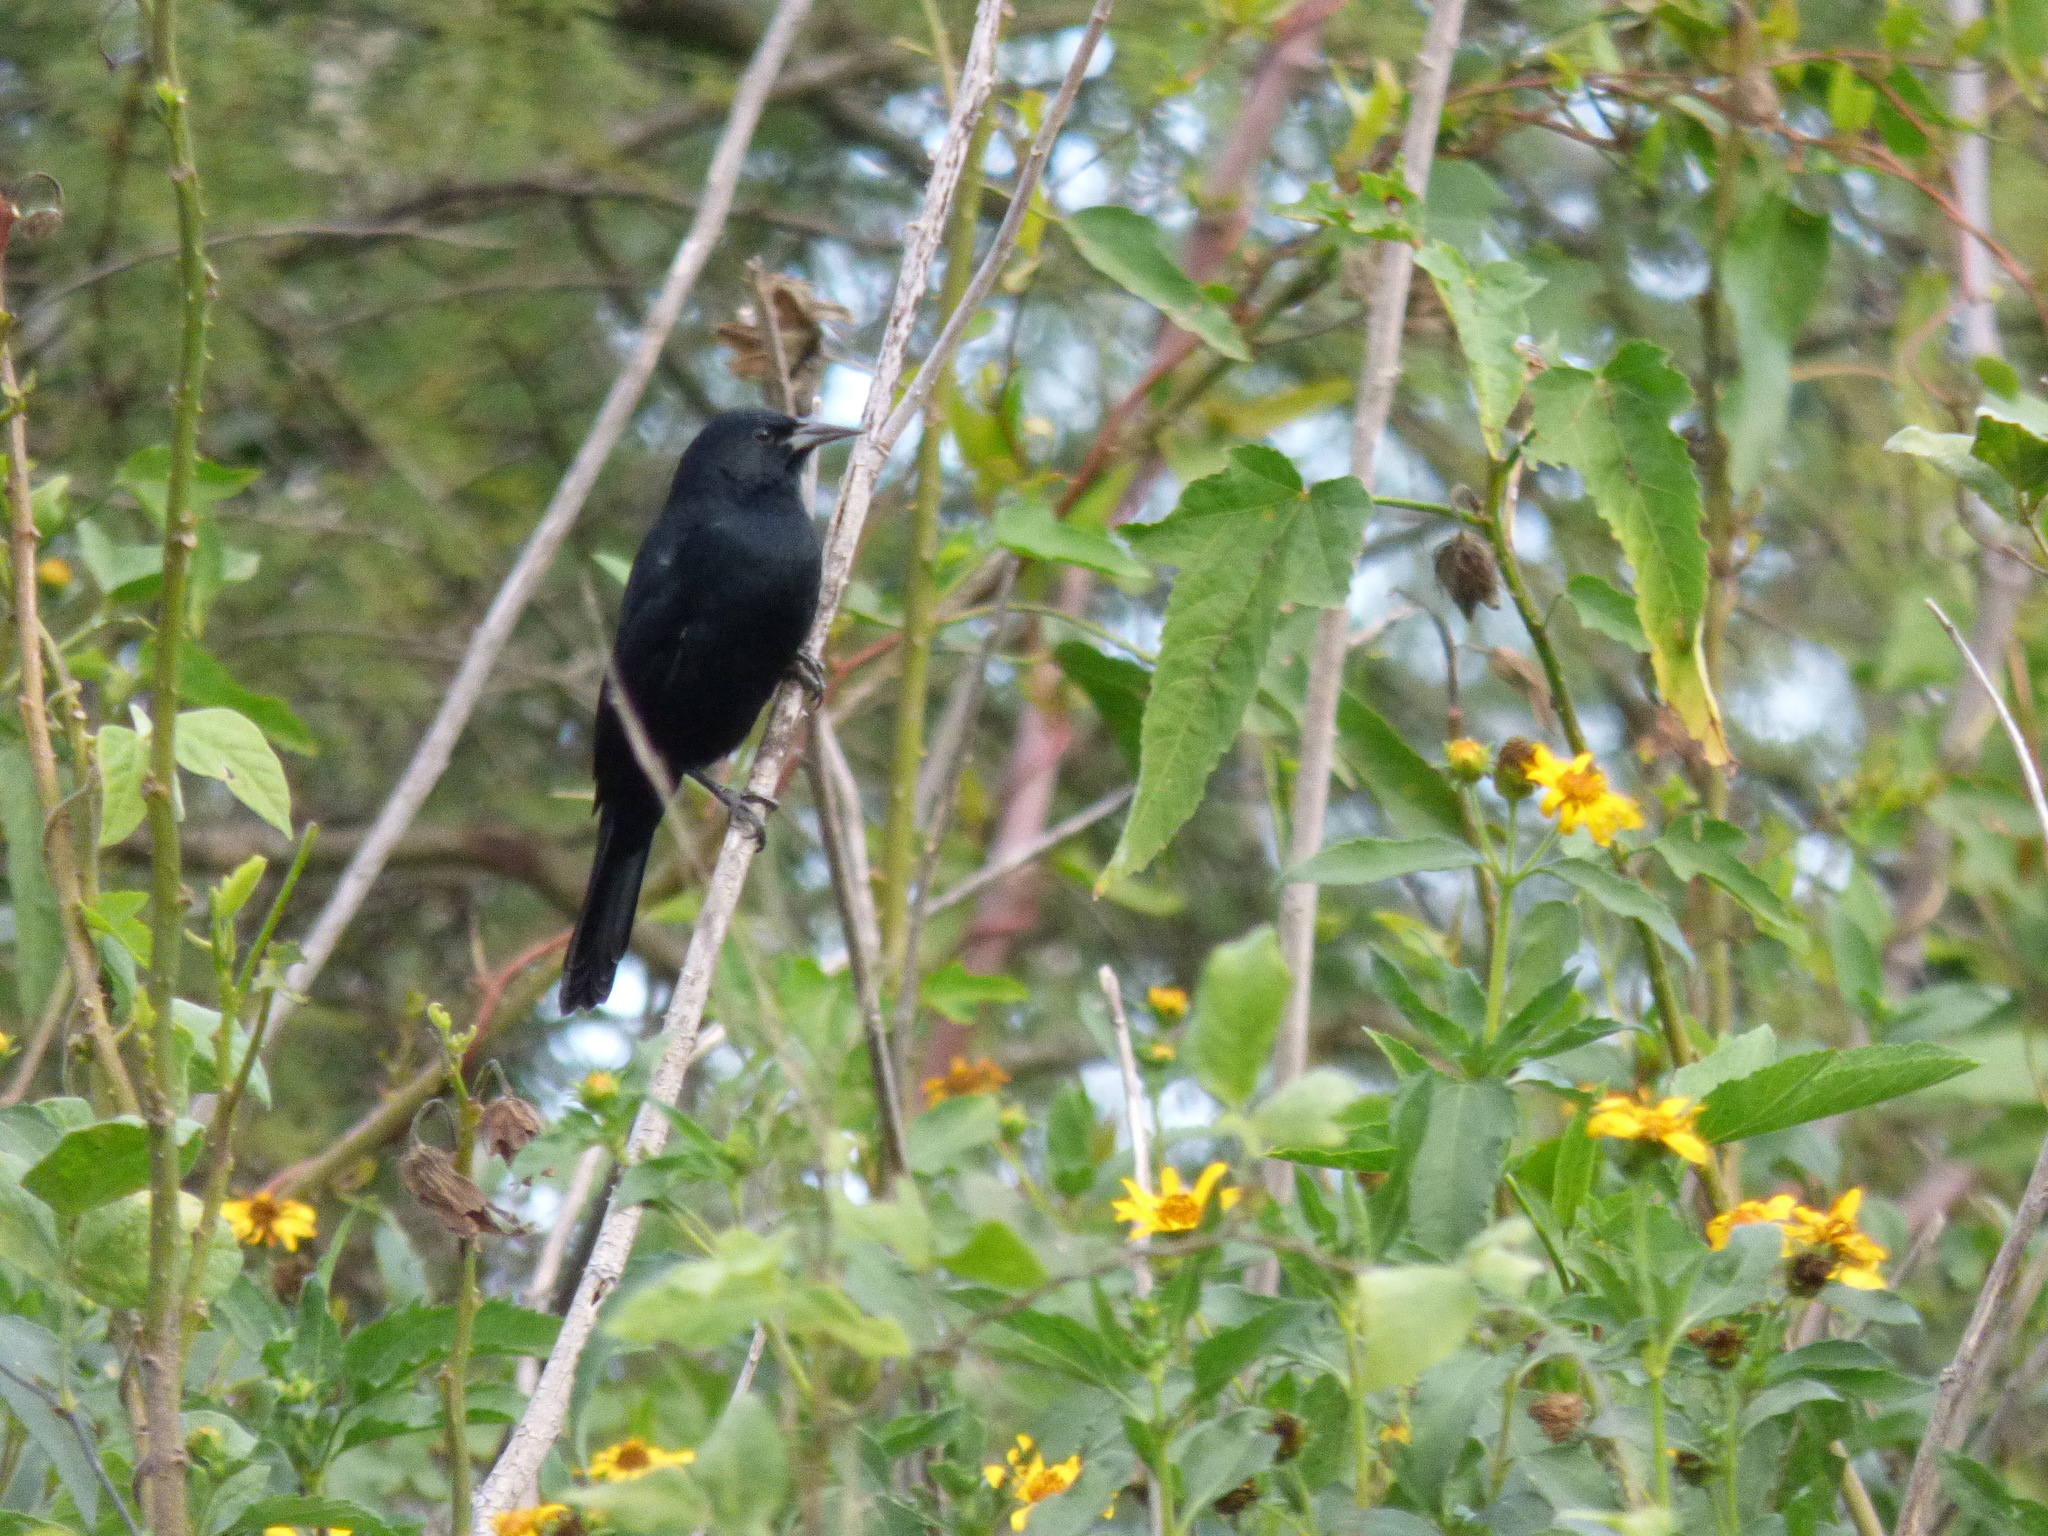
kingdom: Animalia
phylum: Chordata
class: Aves
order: Passeriformes
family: Icteridae
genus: Agelasticus
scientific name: Agelasticus cyanopus
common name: Unicolored blackbird
